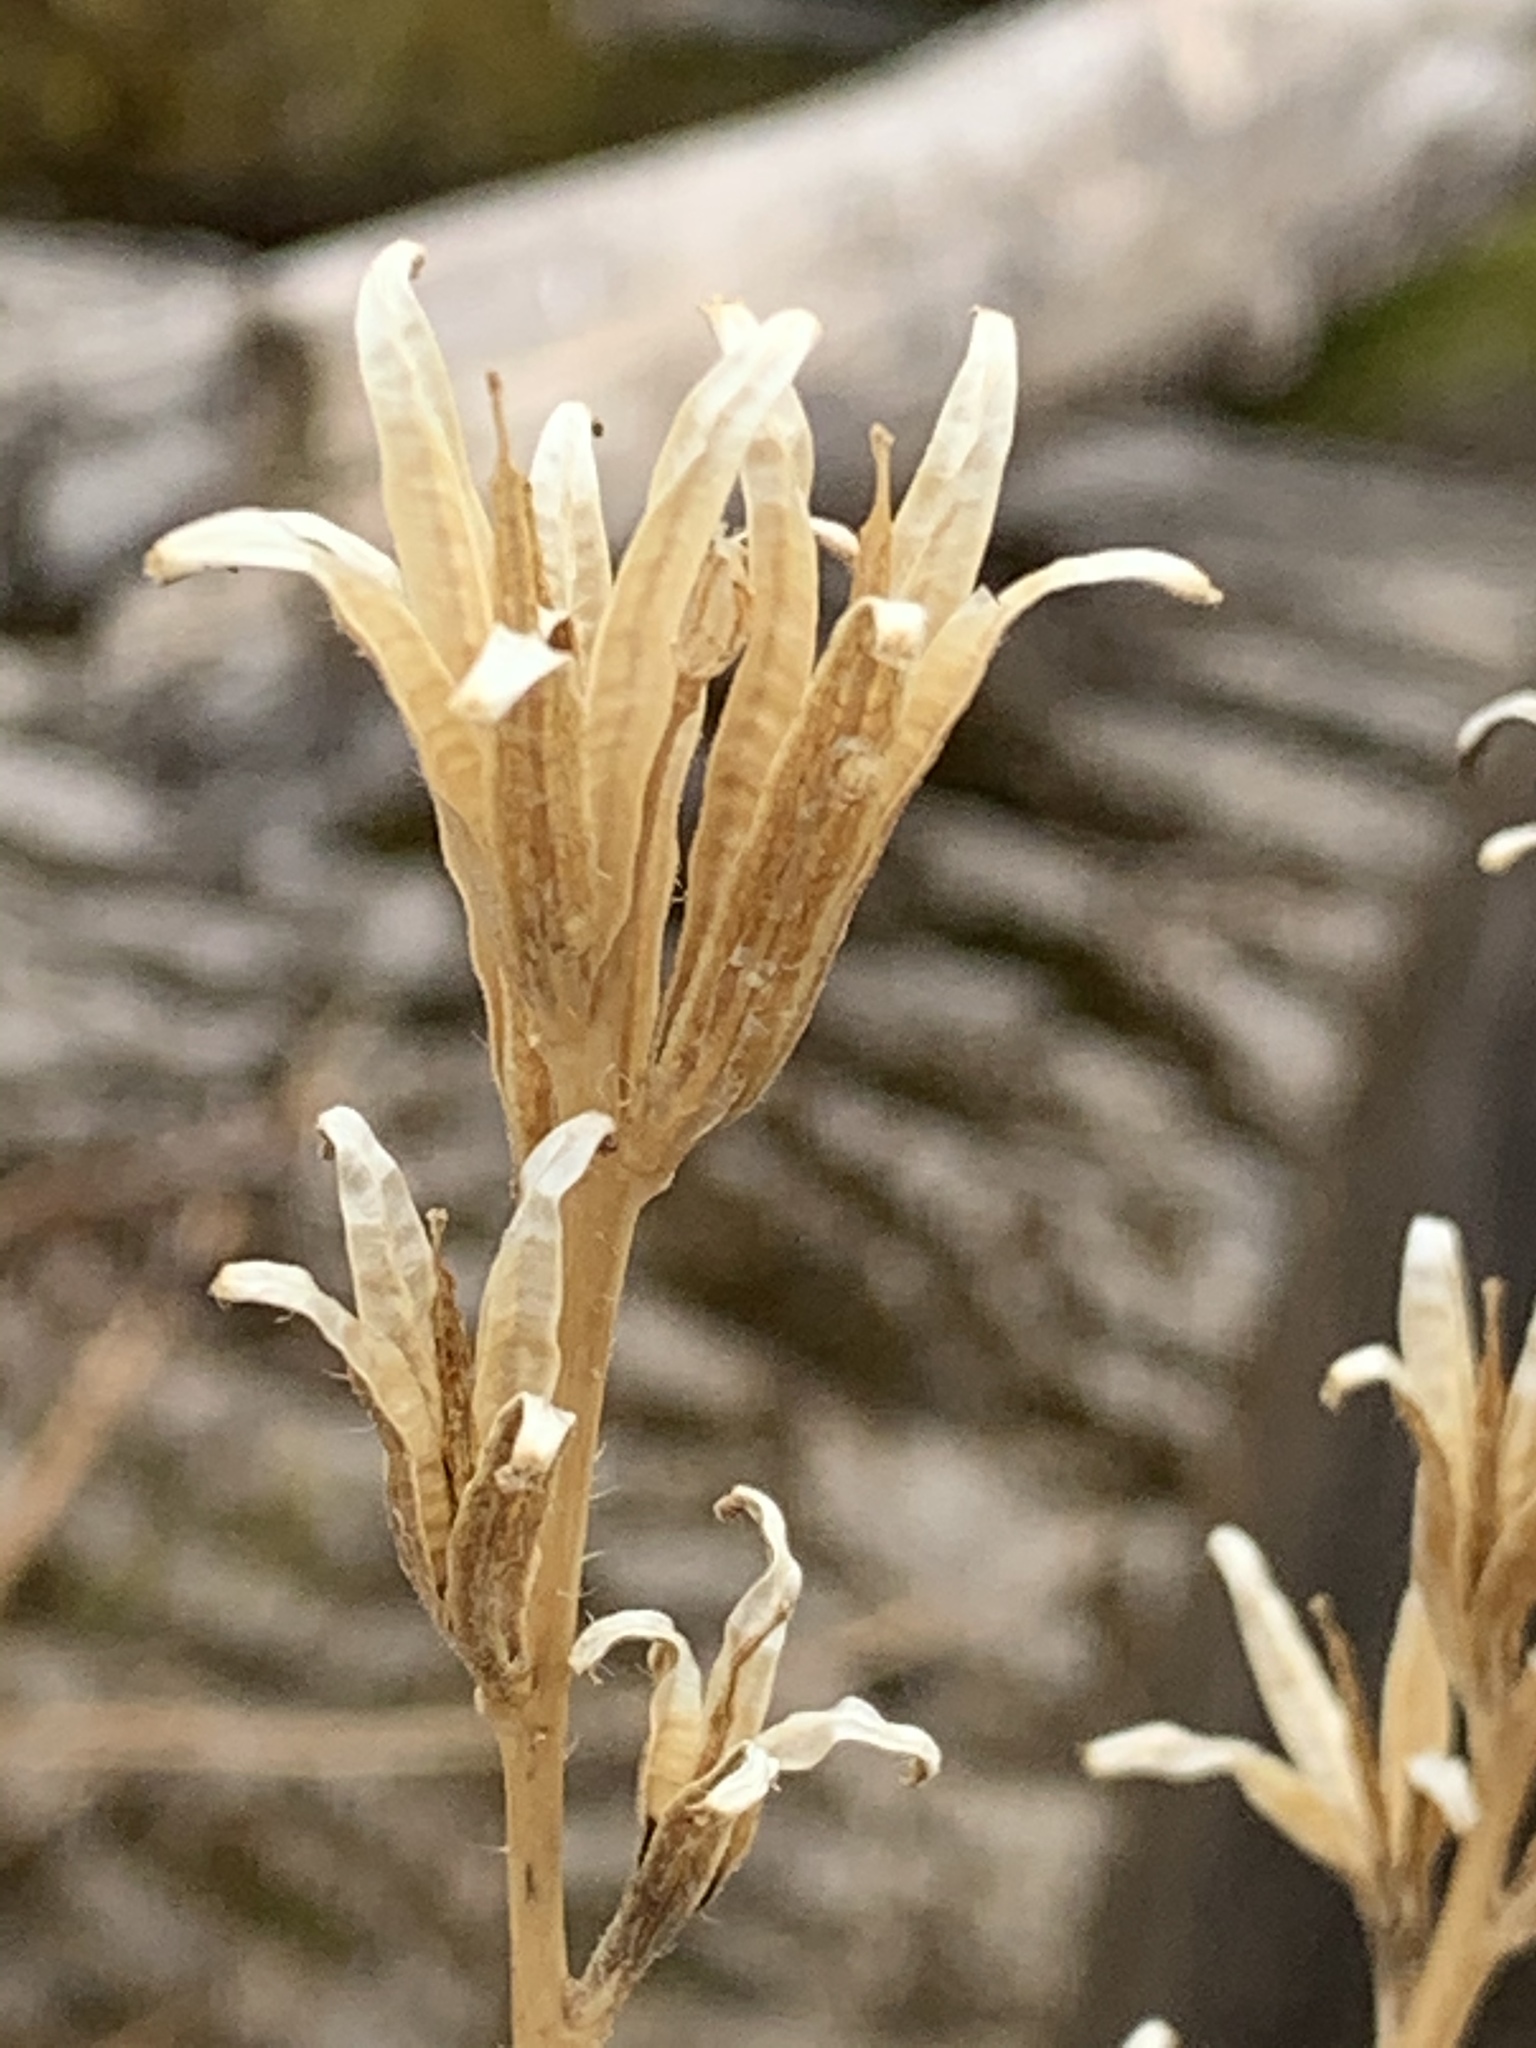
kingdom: Plantae
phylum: Tracheophyta
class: Magnoliopsida
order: Myrtales
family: Onagraceae
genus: Oenothera
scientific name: Oenothera biennis
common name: Common evening-primrose
